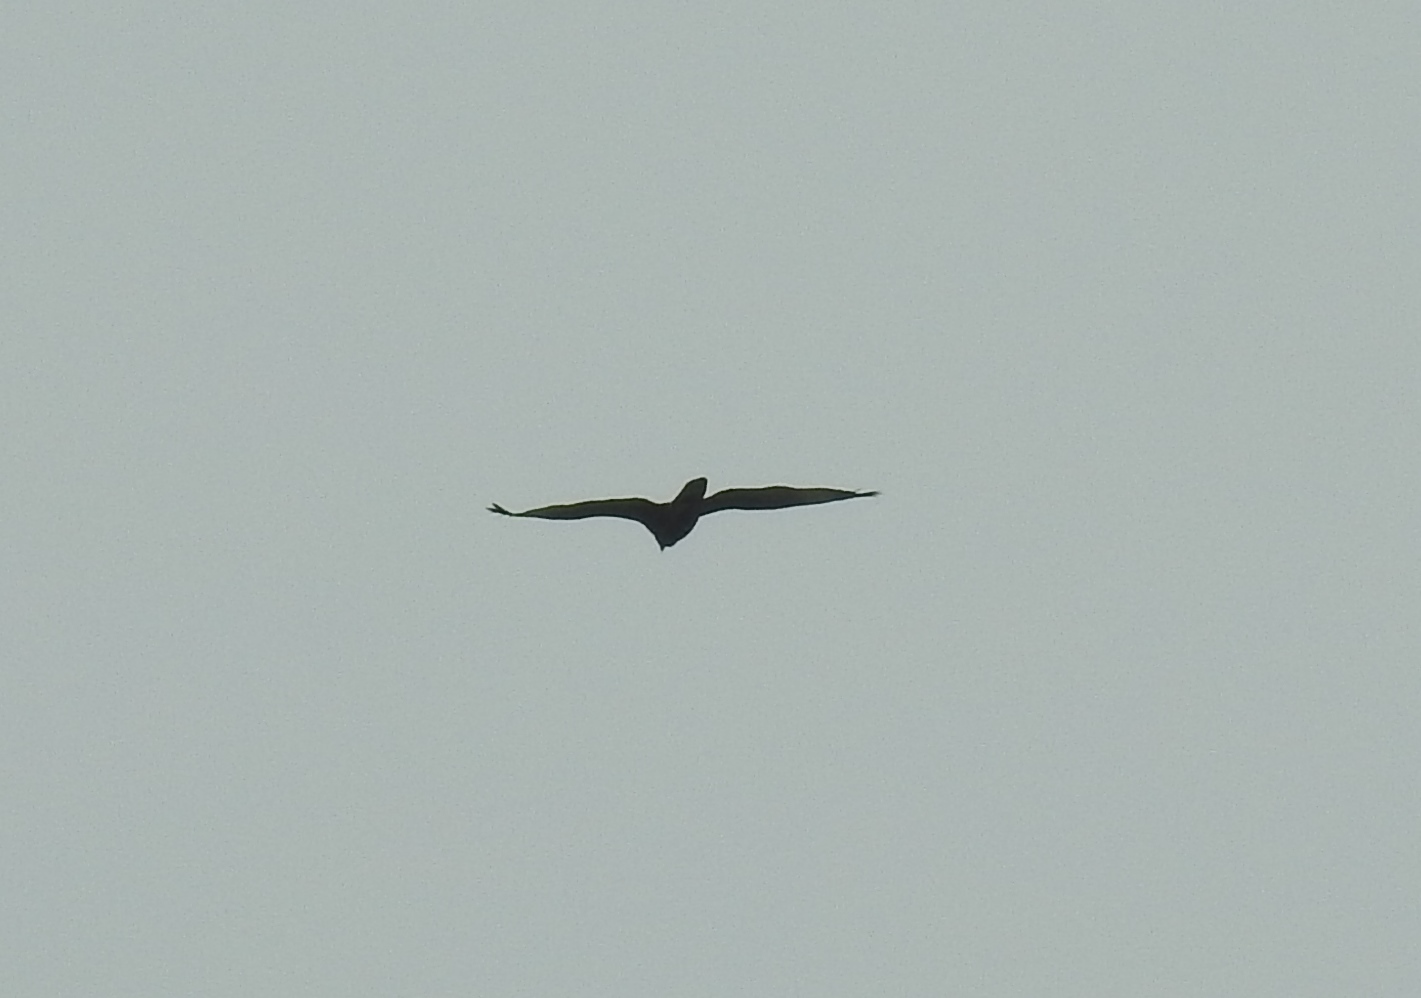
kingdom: Animalia
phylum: Chordata
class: Aves
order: Accipitriformes
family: Accipitridae
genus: Pernis
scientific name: Pernis ptilorhynchus
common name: Crested honey buzzard
